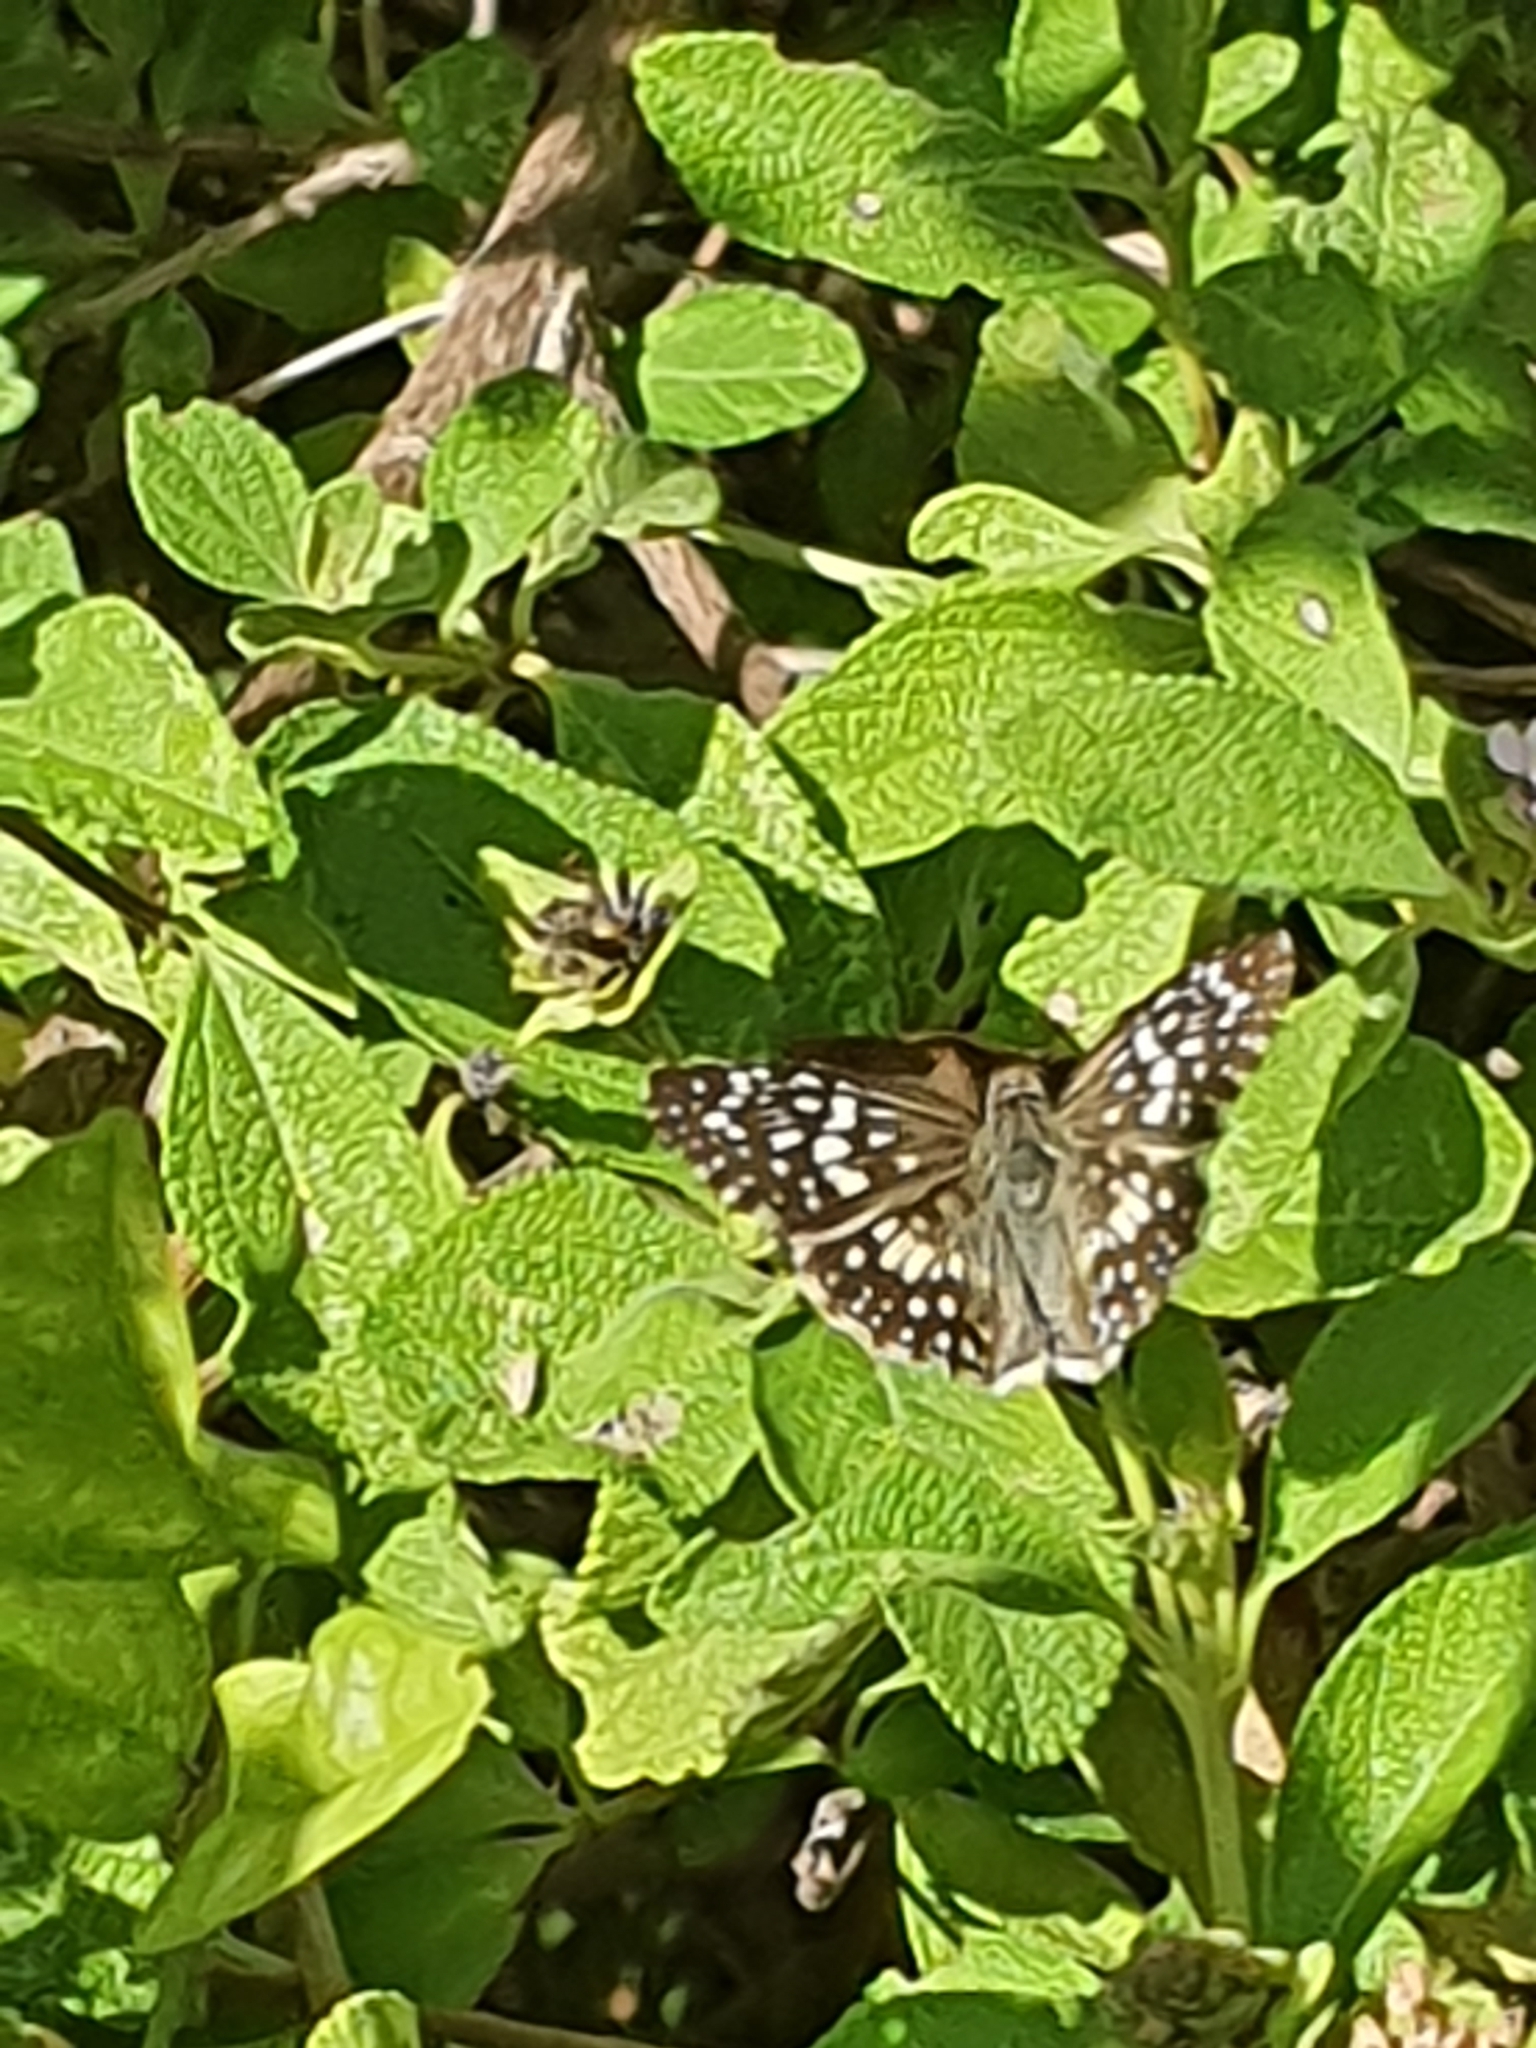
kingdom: Animalia
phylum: Arthropoda
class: Insecta
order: Lepidoptera
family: Hesperiidae
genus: Pyrgus
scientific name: Pyrgus oileus
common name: Tropical checkered-skipper
